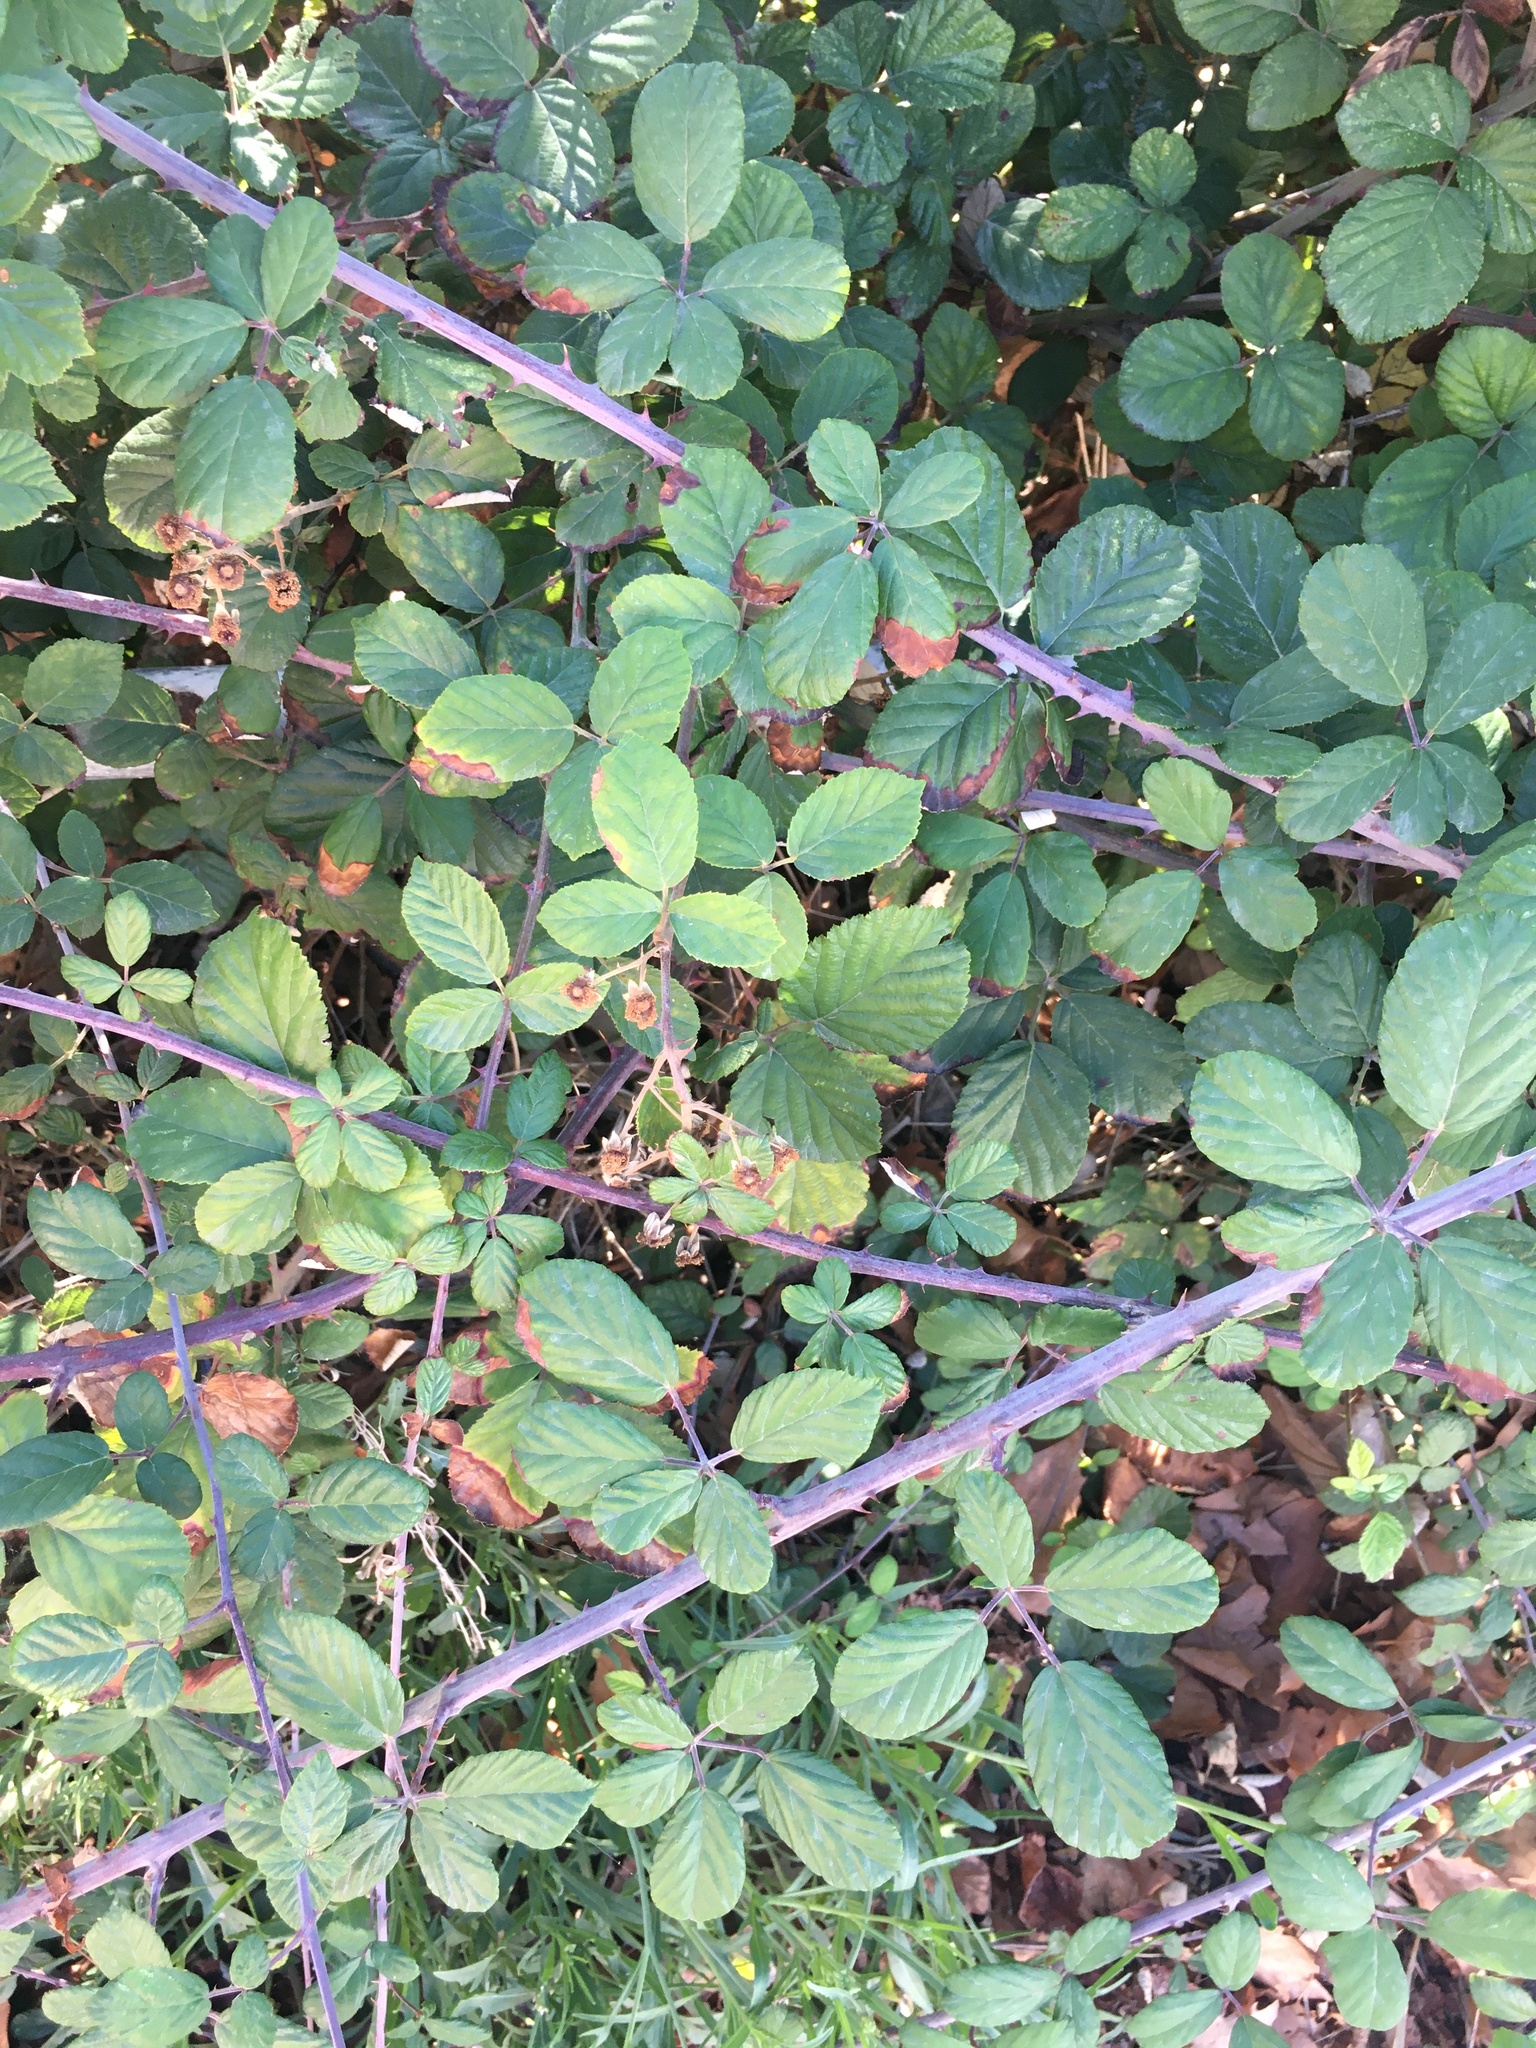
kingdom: Plantae
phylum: Tracheophyta
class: Magnoliopsida
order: Rosales
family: Rosaceae
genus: Rubus
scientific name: Rubus ulmifolius
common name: Elmleaf blackberry
